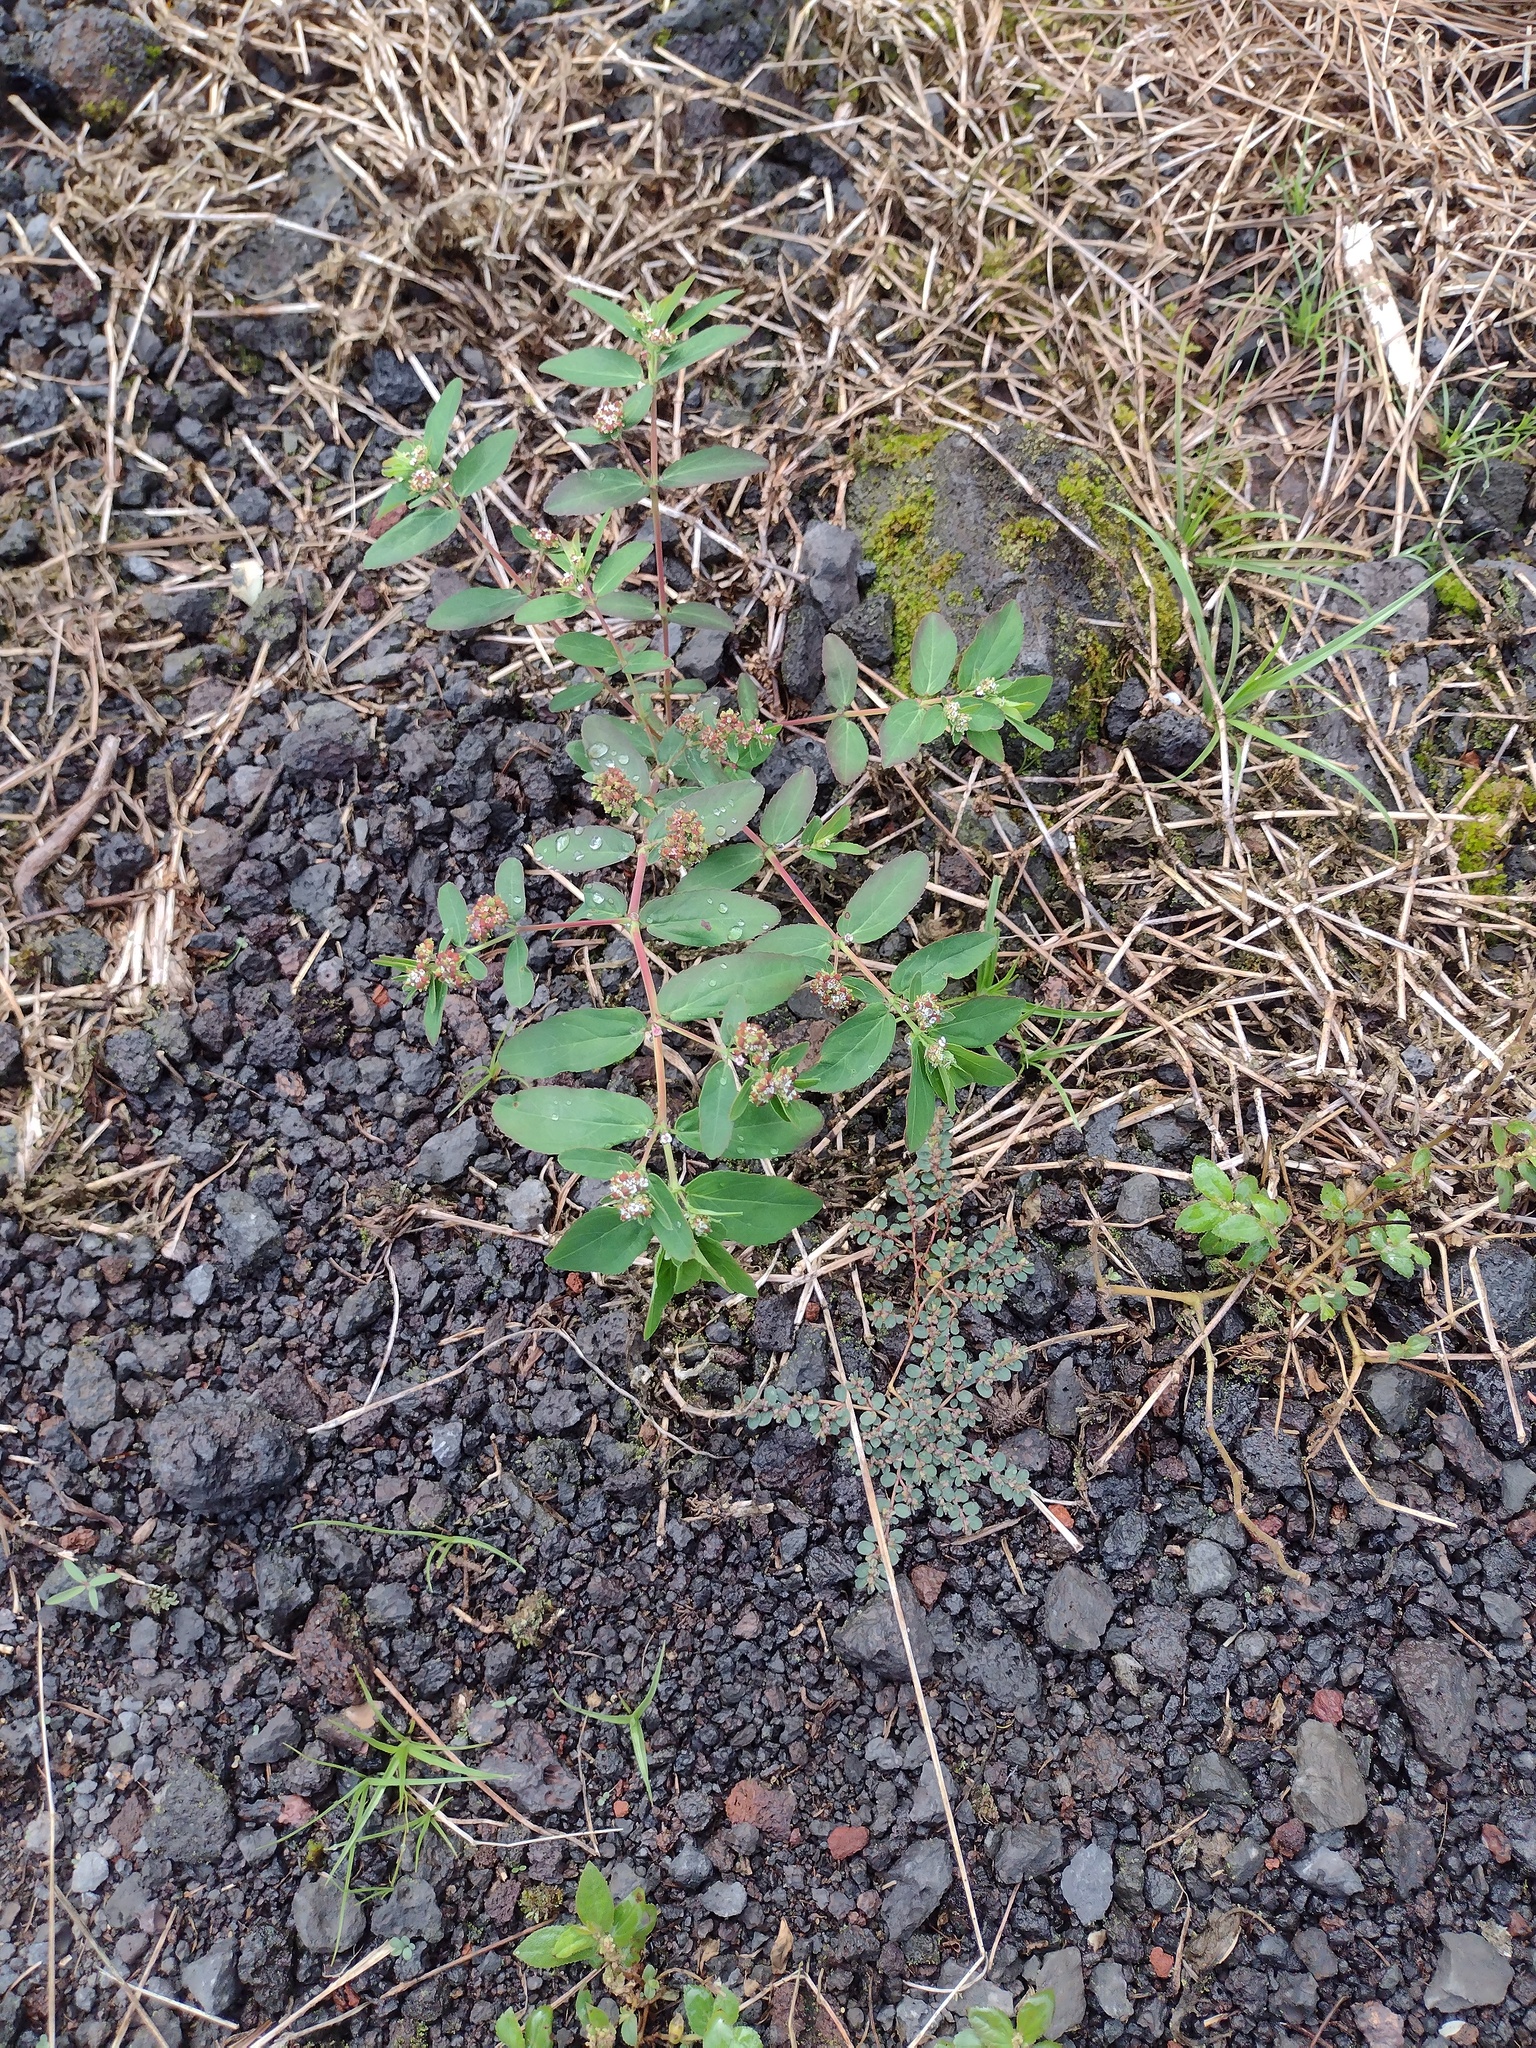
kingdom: Plantae
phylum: Tracheophyta
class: Magnoliopsida
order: Malpighiales
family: Euphorbiaceae
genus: Euphorbia
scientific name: Euphorbia hypericifolia
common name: Graceful sandmat
